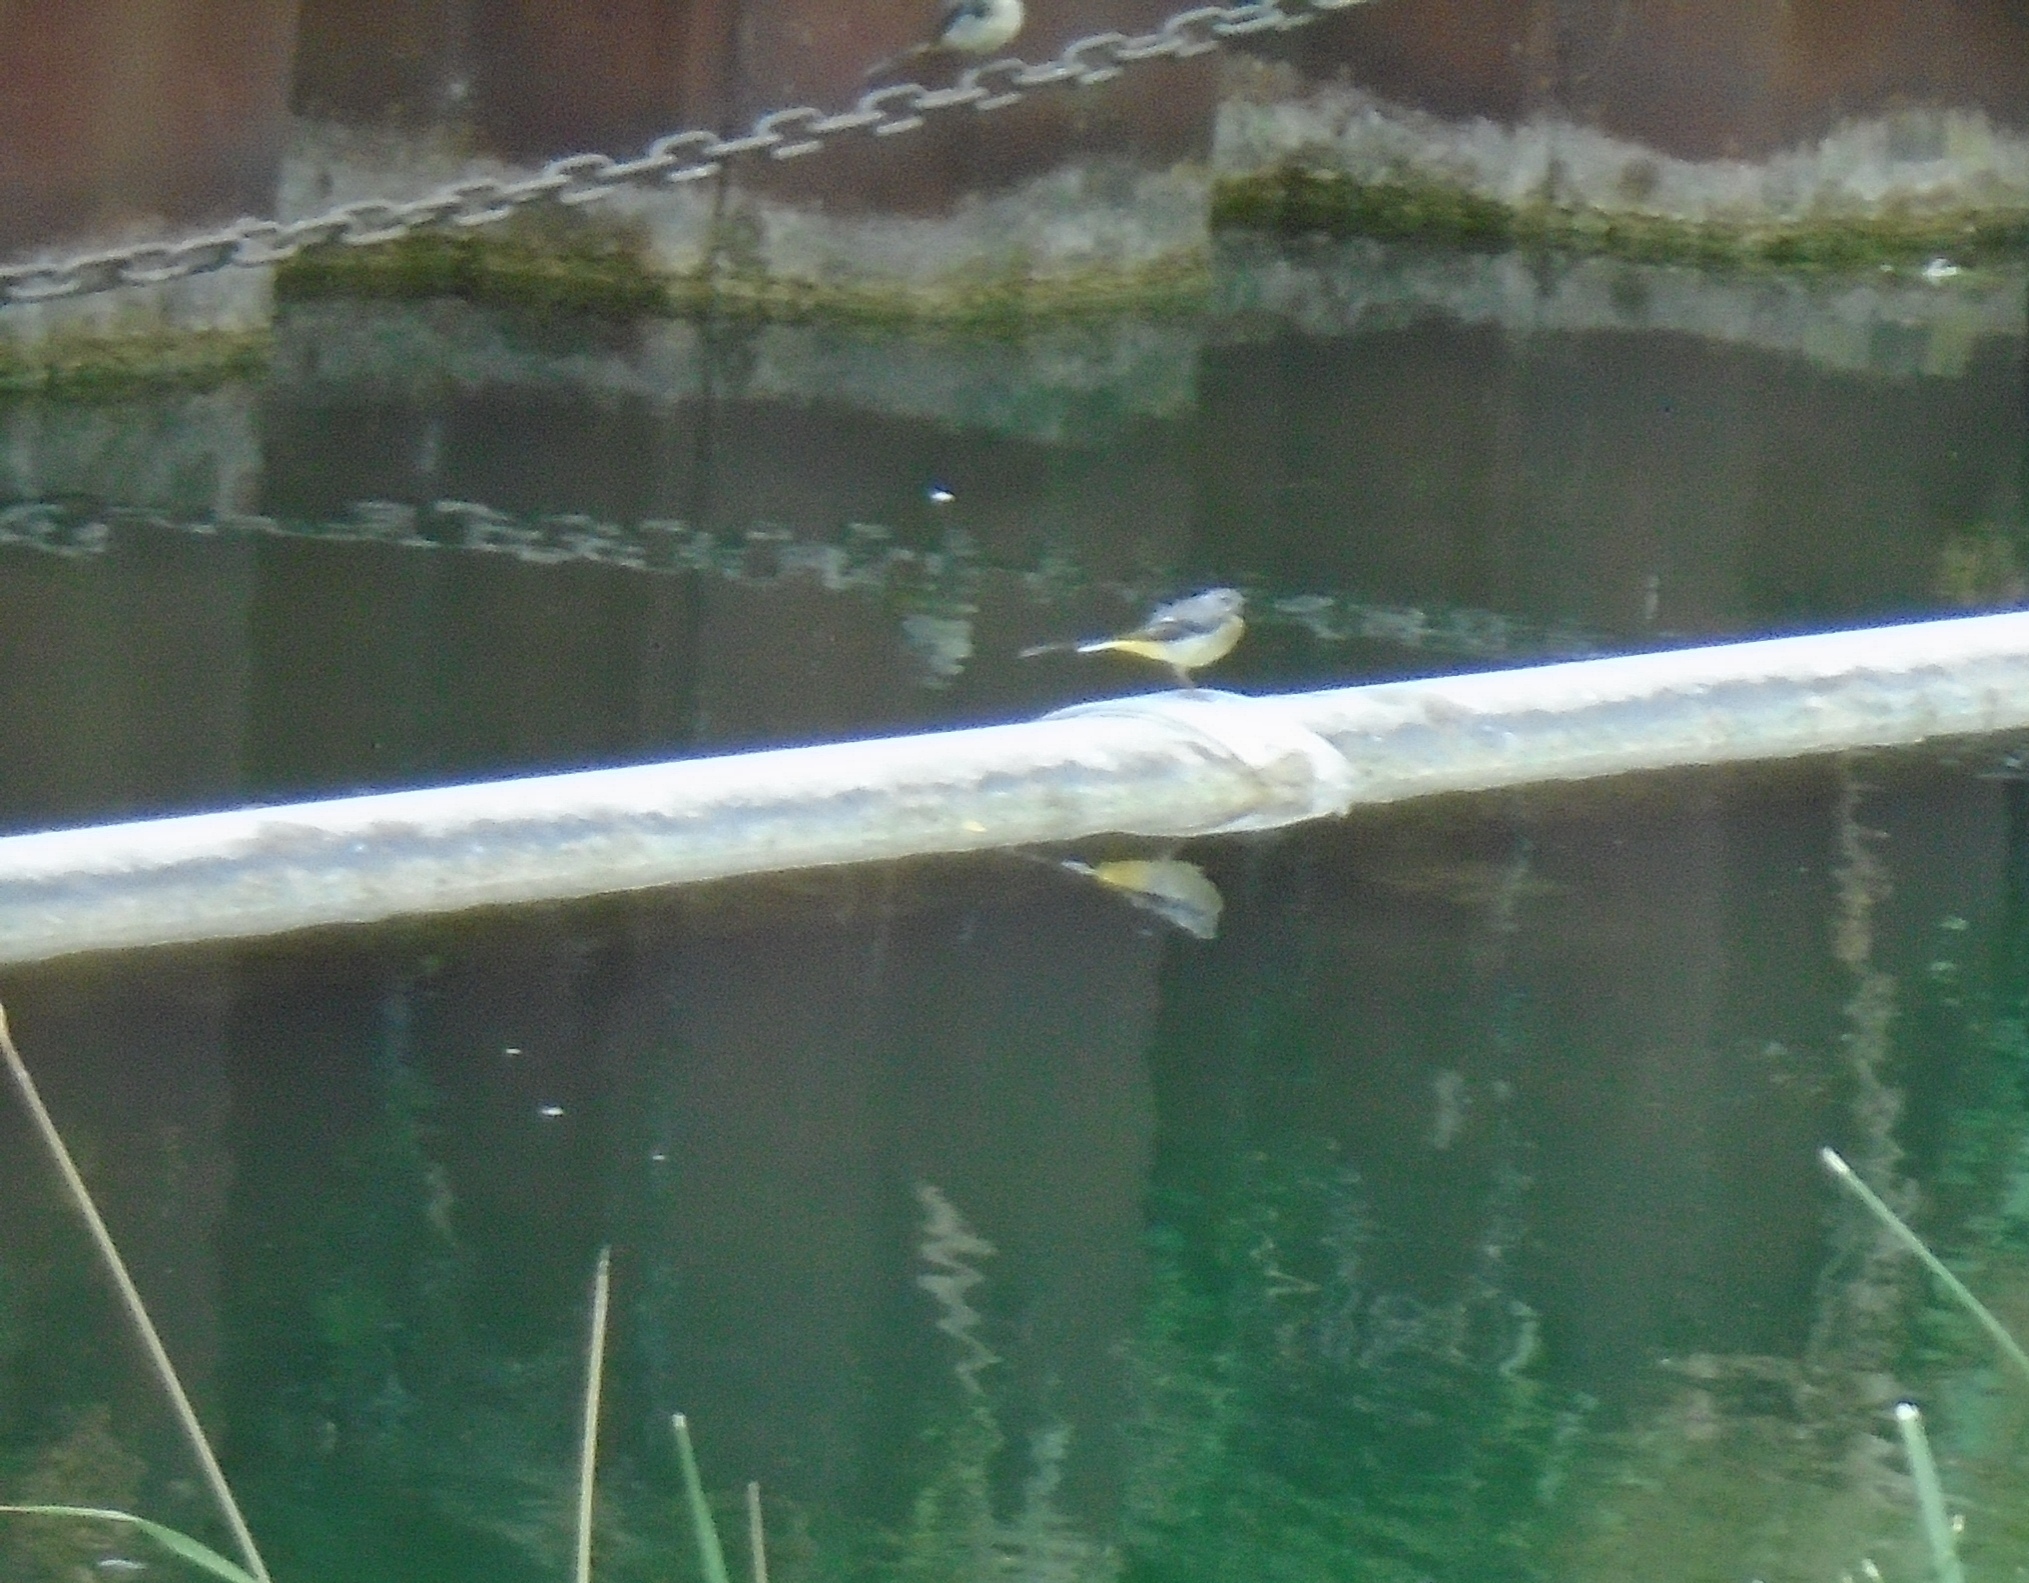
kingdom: Animalia
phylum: Chordata
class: Aves
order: Passeriformes
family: Motacillidae
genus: Motacilla
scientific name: Motacilla cinerea
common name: Grey wagtail
